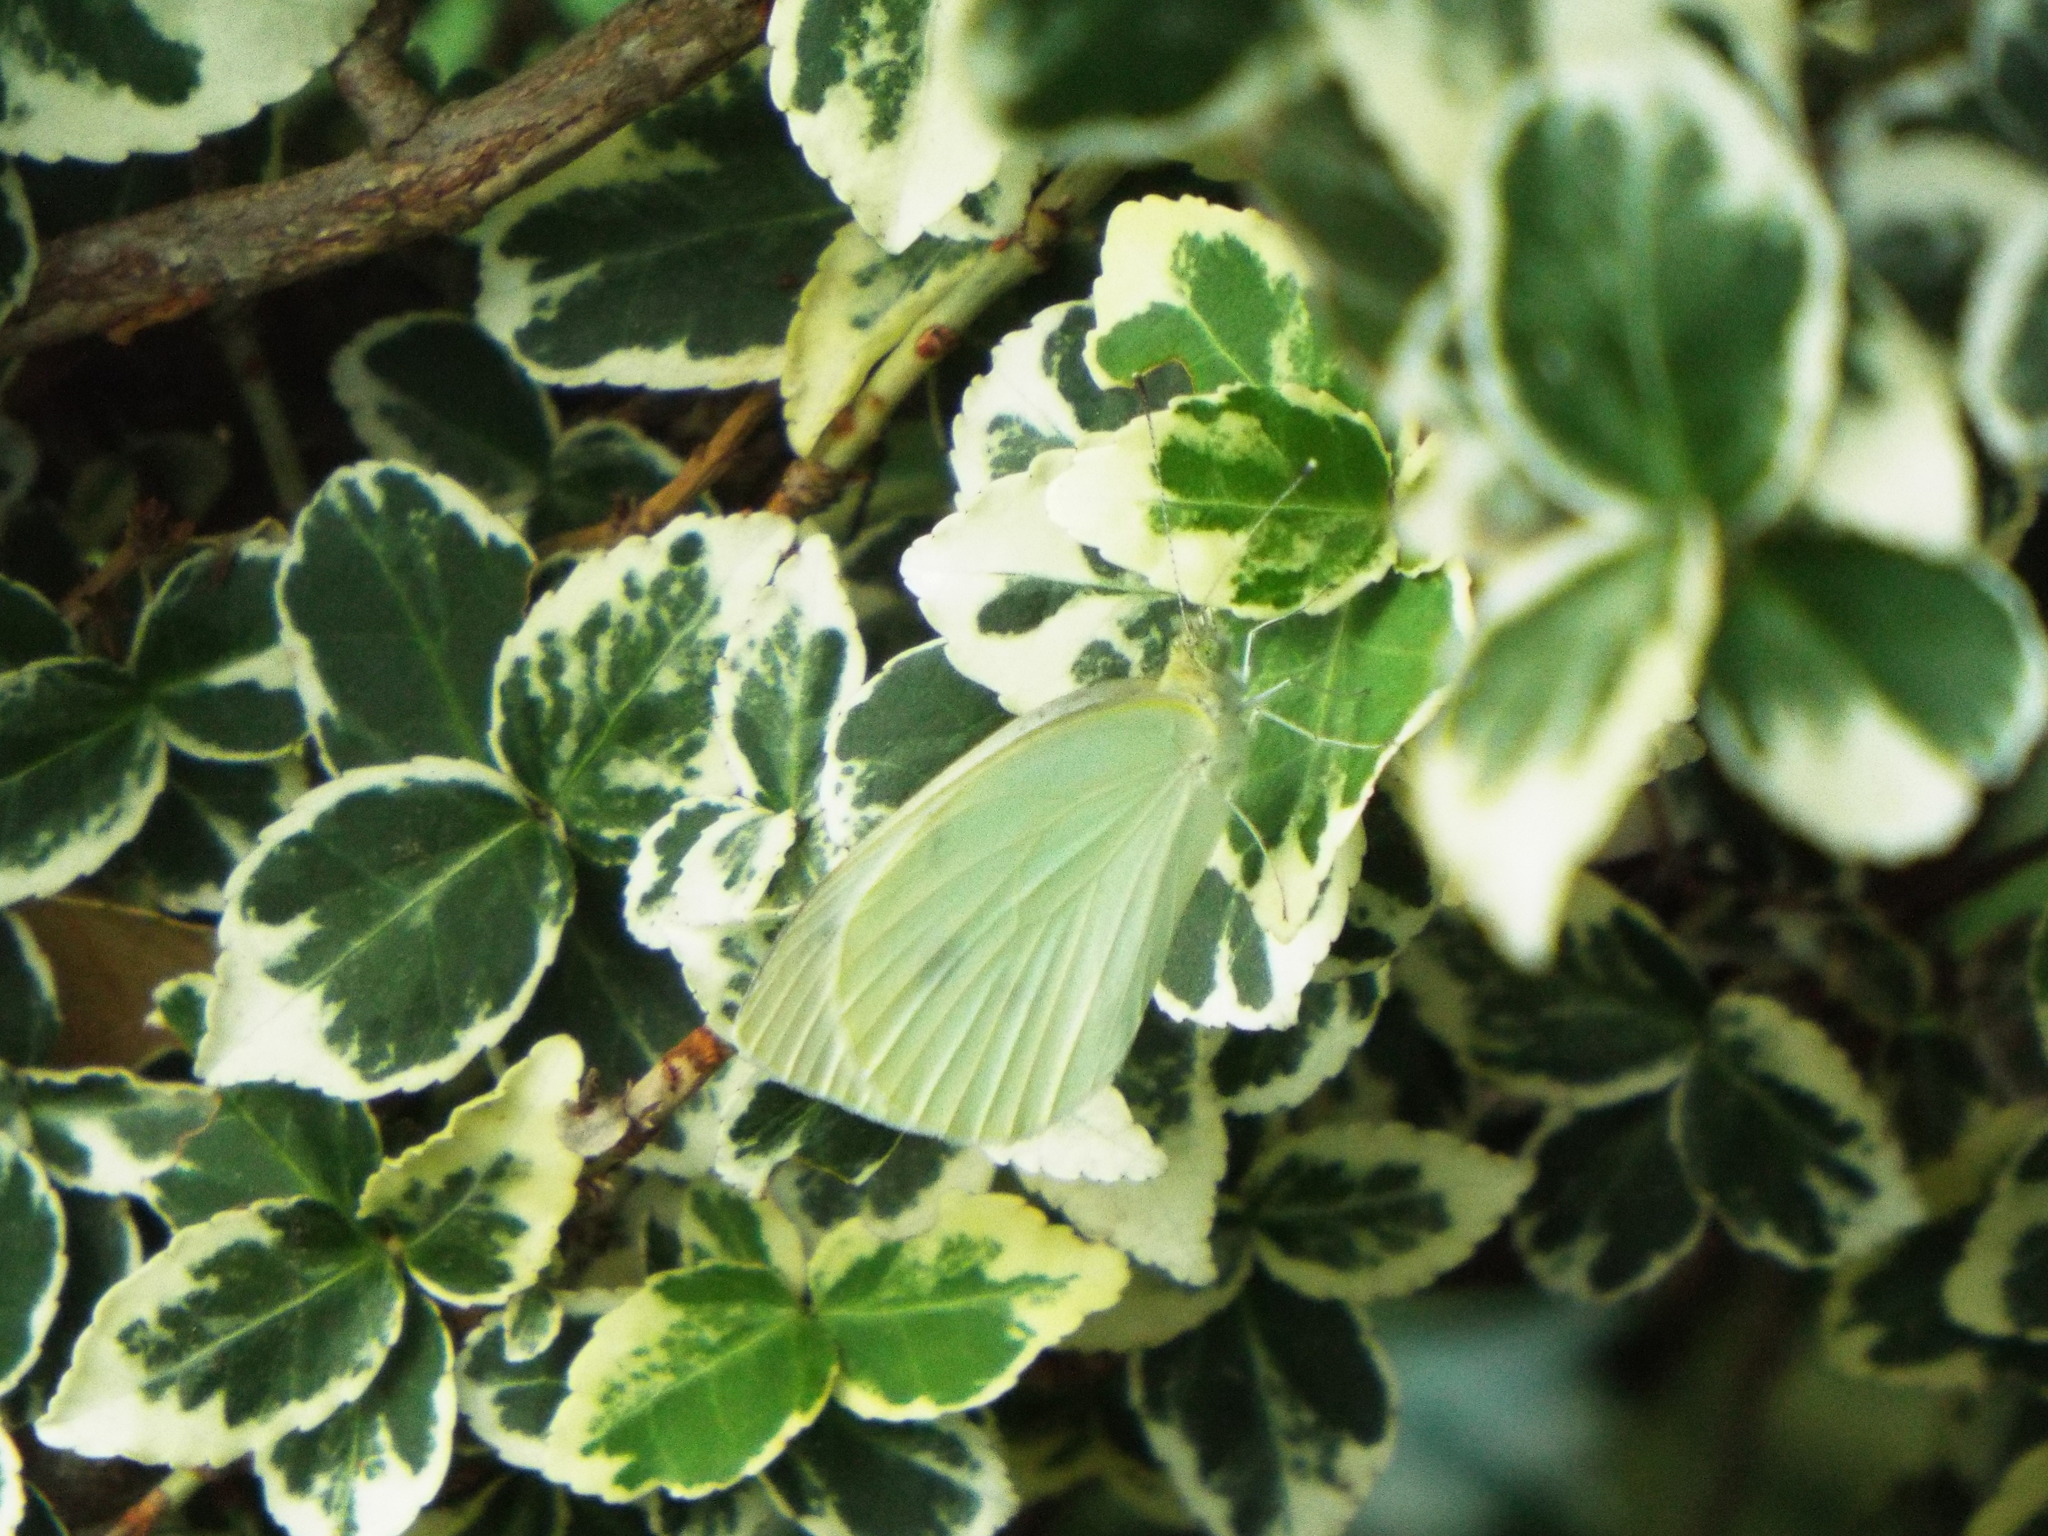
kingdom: Animalia
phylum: Arthropoda
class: Insecta
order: Lepidoptera
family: Pieridae
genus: Pieris
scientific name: Pieris rapae
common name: Small white
